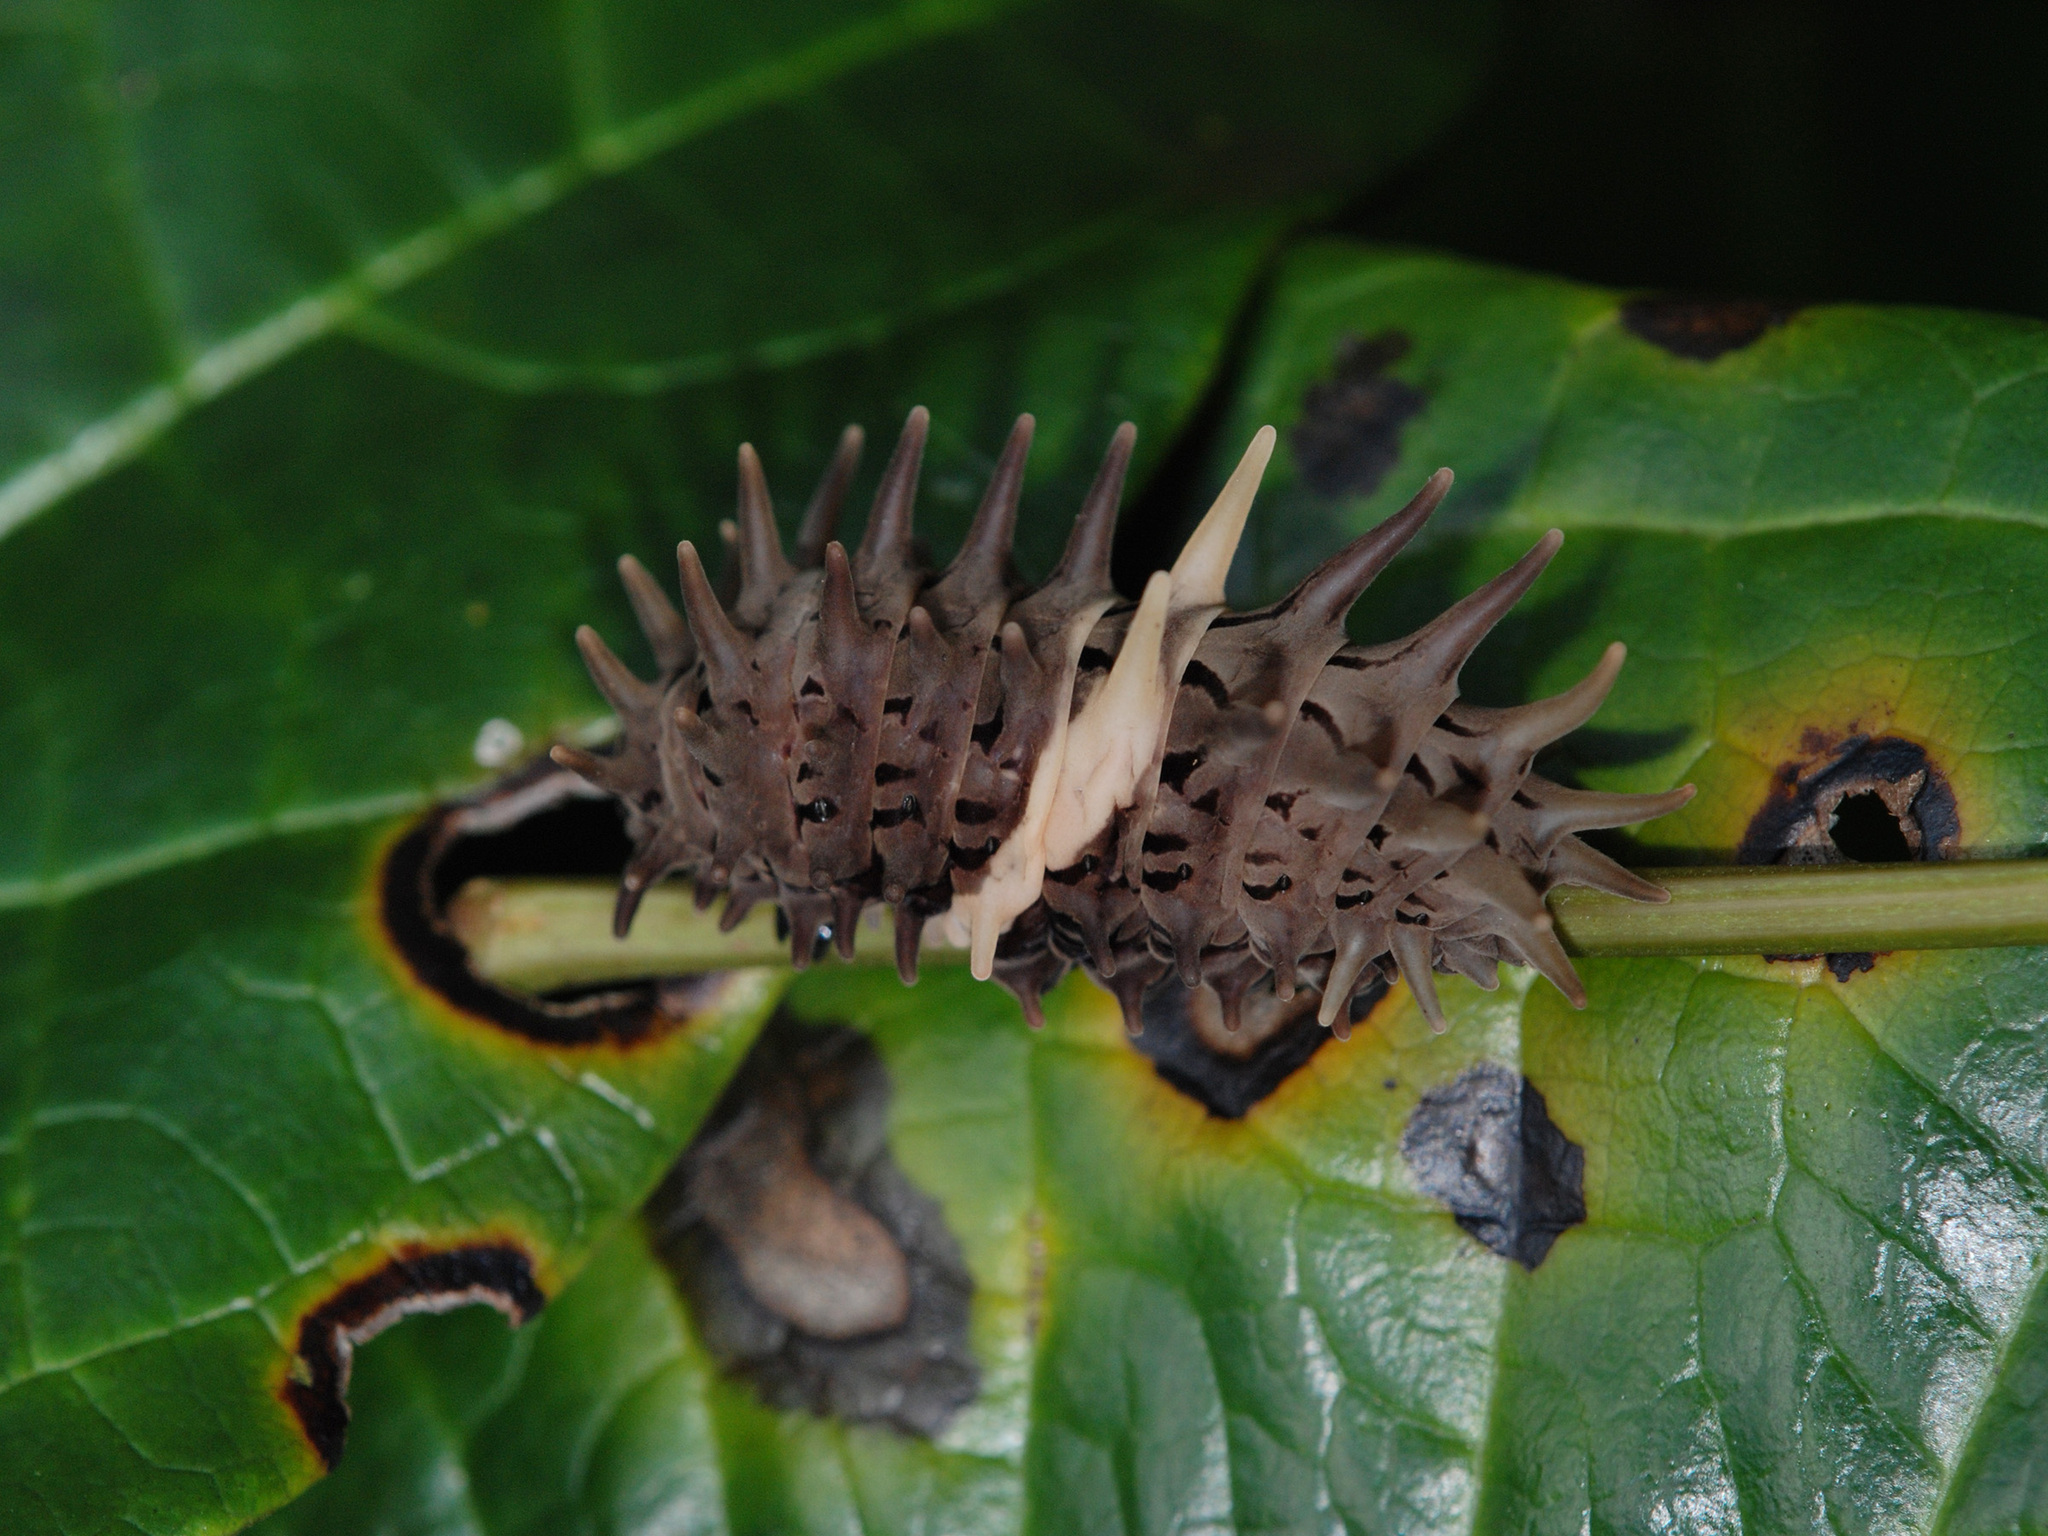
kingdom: Animalia
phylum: Arthropoda
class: Insecta
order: Lepidoptera
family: Papilionidae
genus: Troides
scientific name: Troides helena
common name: Common birdwing
